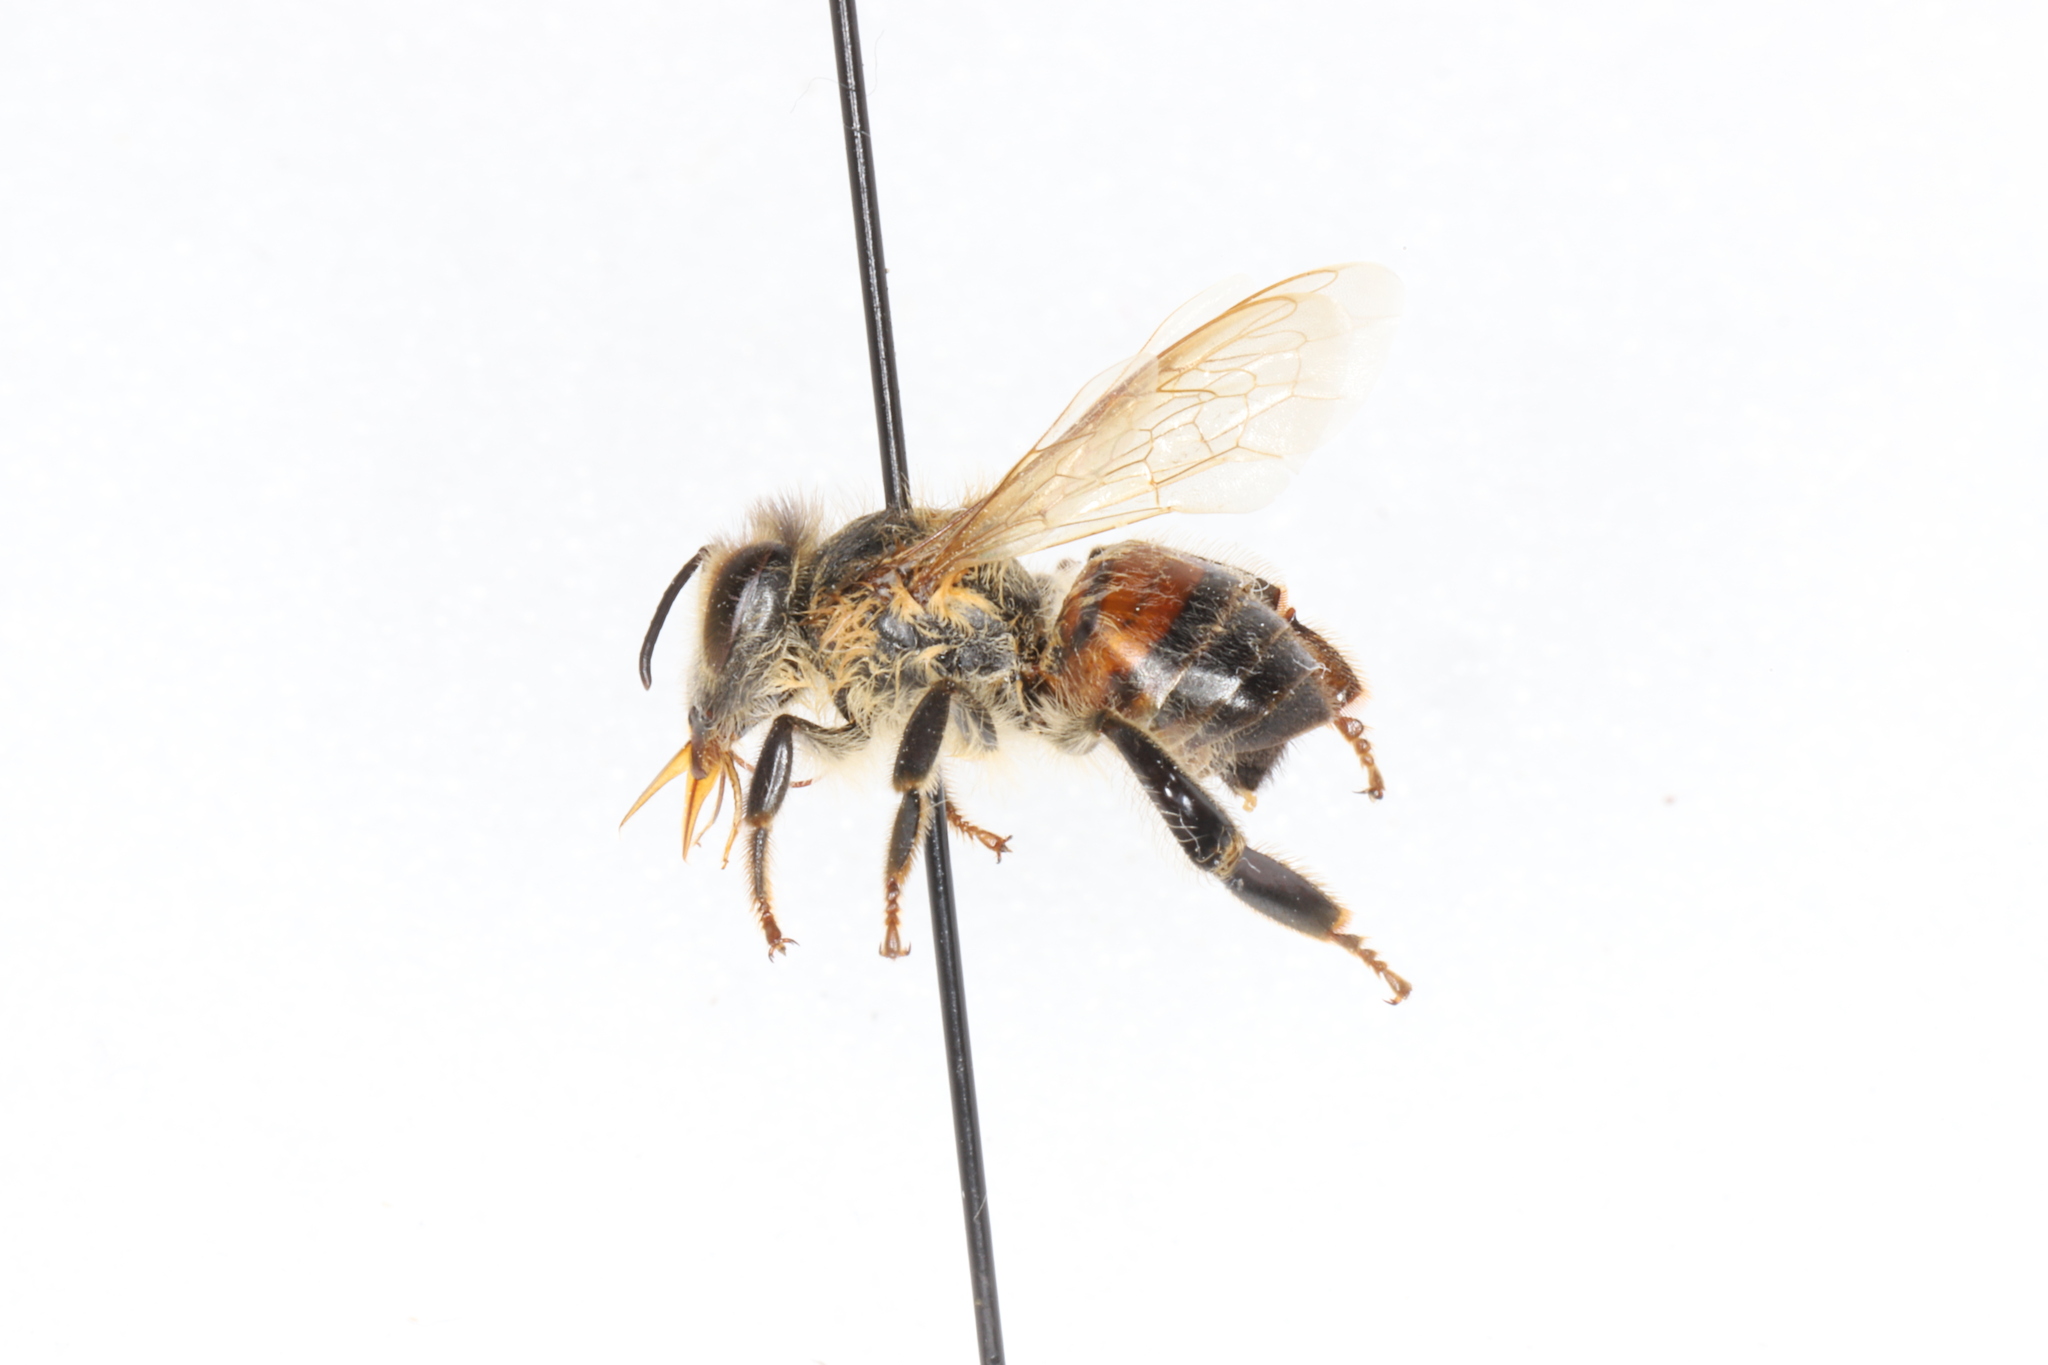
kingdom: Animalia
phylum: Arthropoda
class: Insecta
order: Hymenoptera
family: Apidae
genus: Apis
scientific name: Apis mellifera
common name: Honey bee
